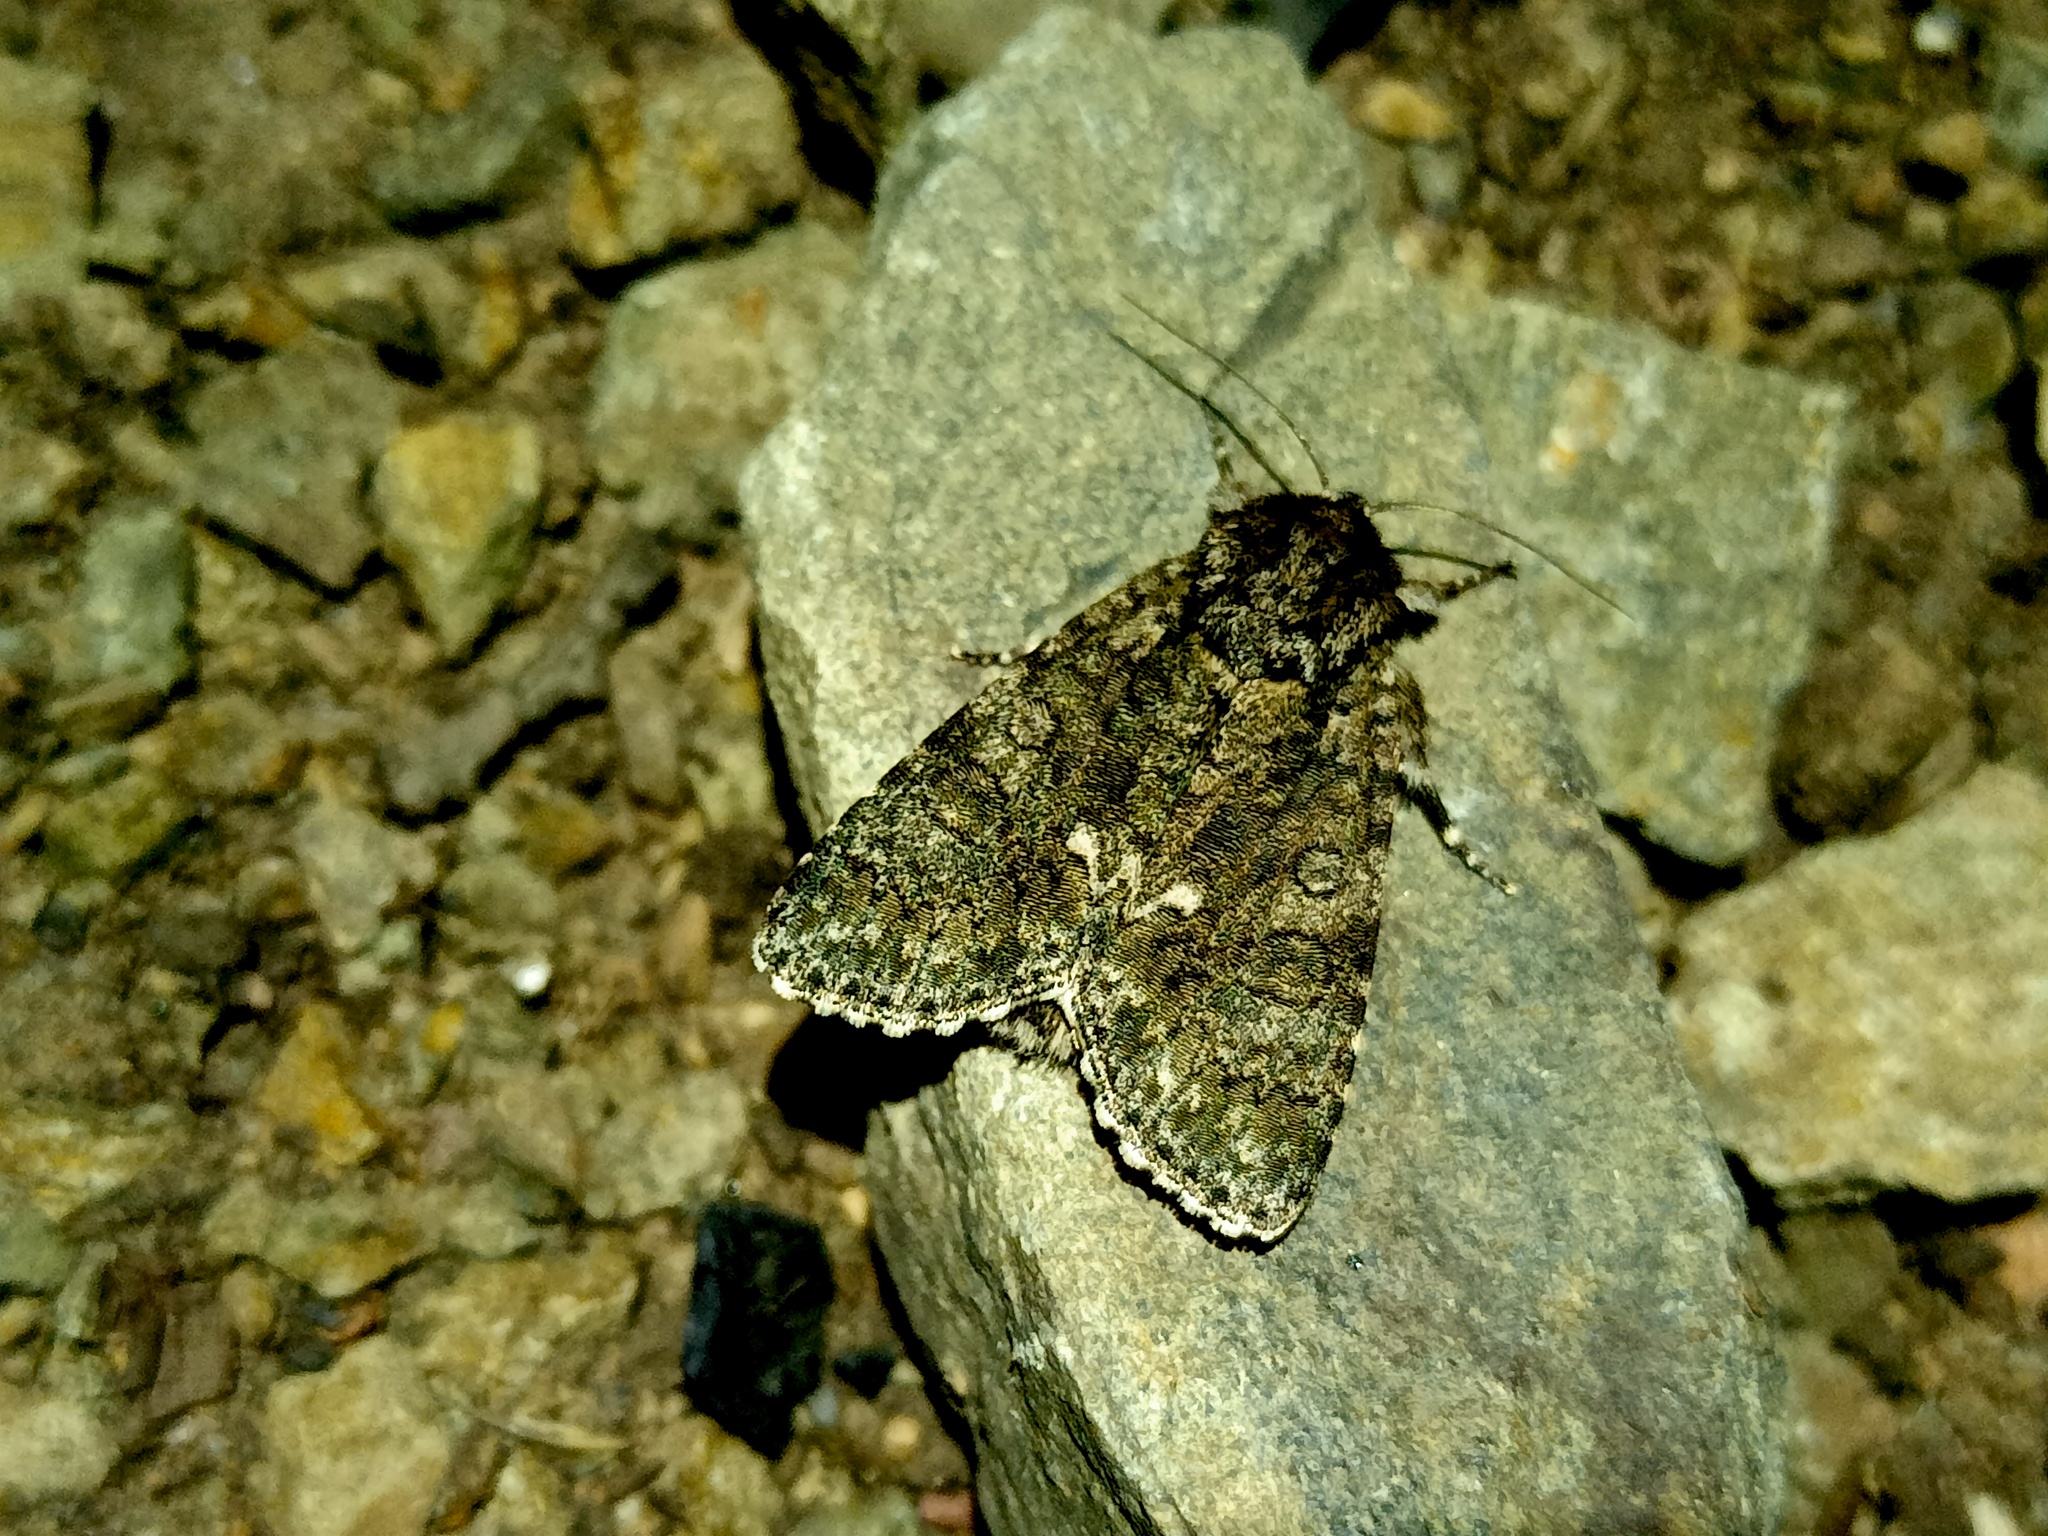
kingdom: Animalia
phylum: Arthropoda
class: Insecta
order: Lepidoptera
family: Noctuidae
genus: Acronicta
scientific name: Acronicta rumicis
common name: Knot grass
